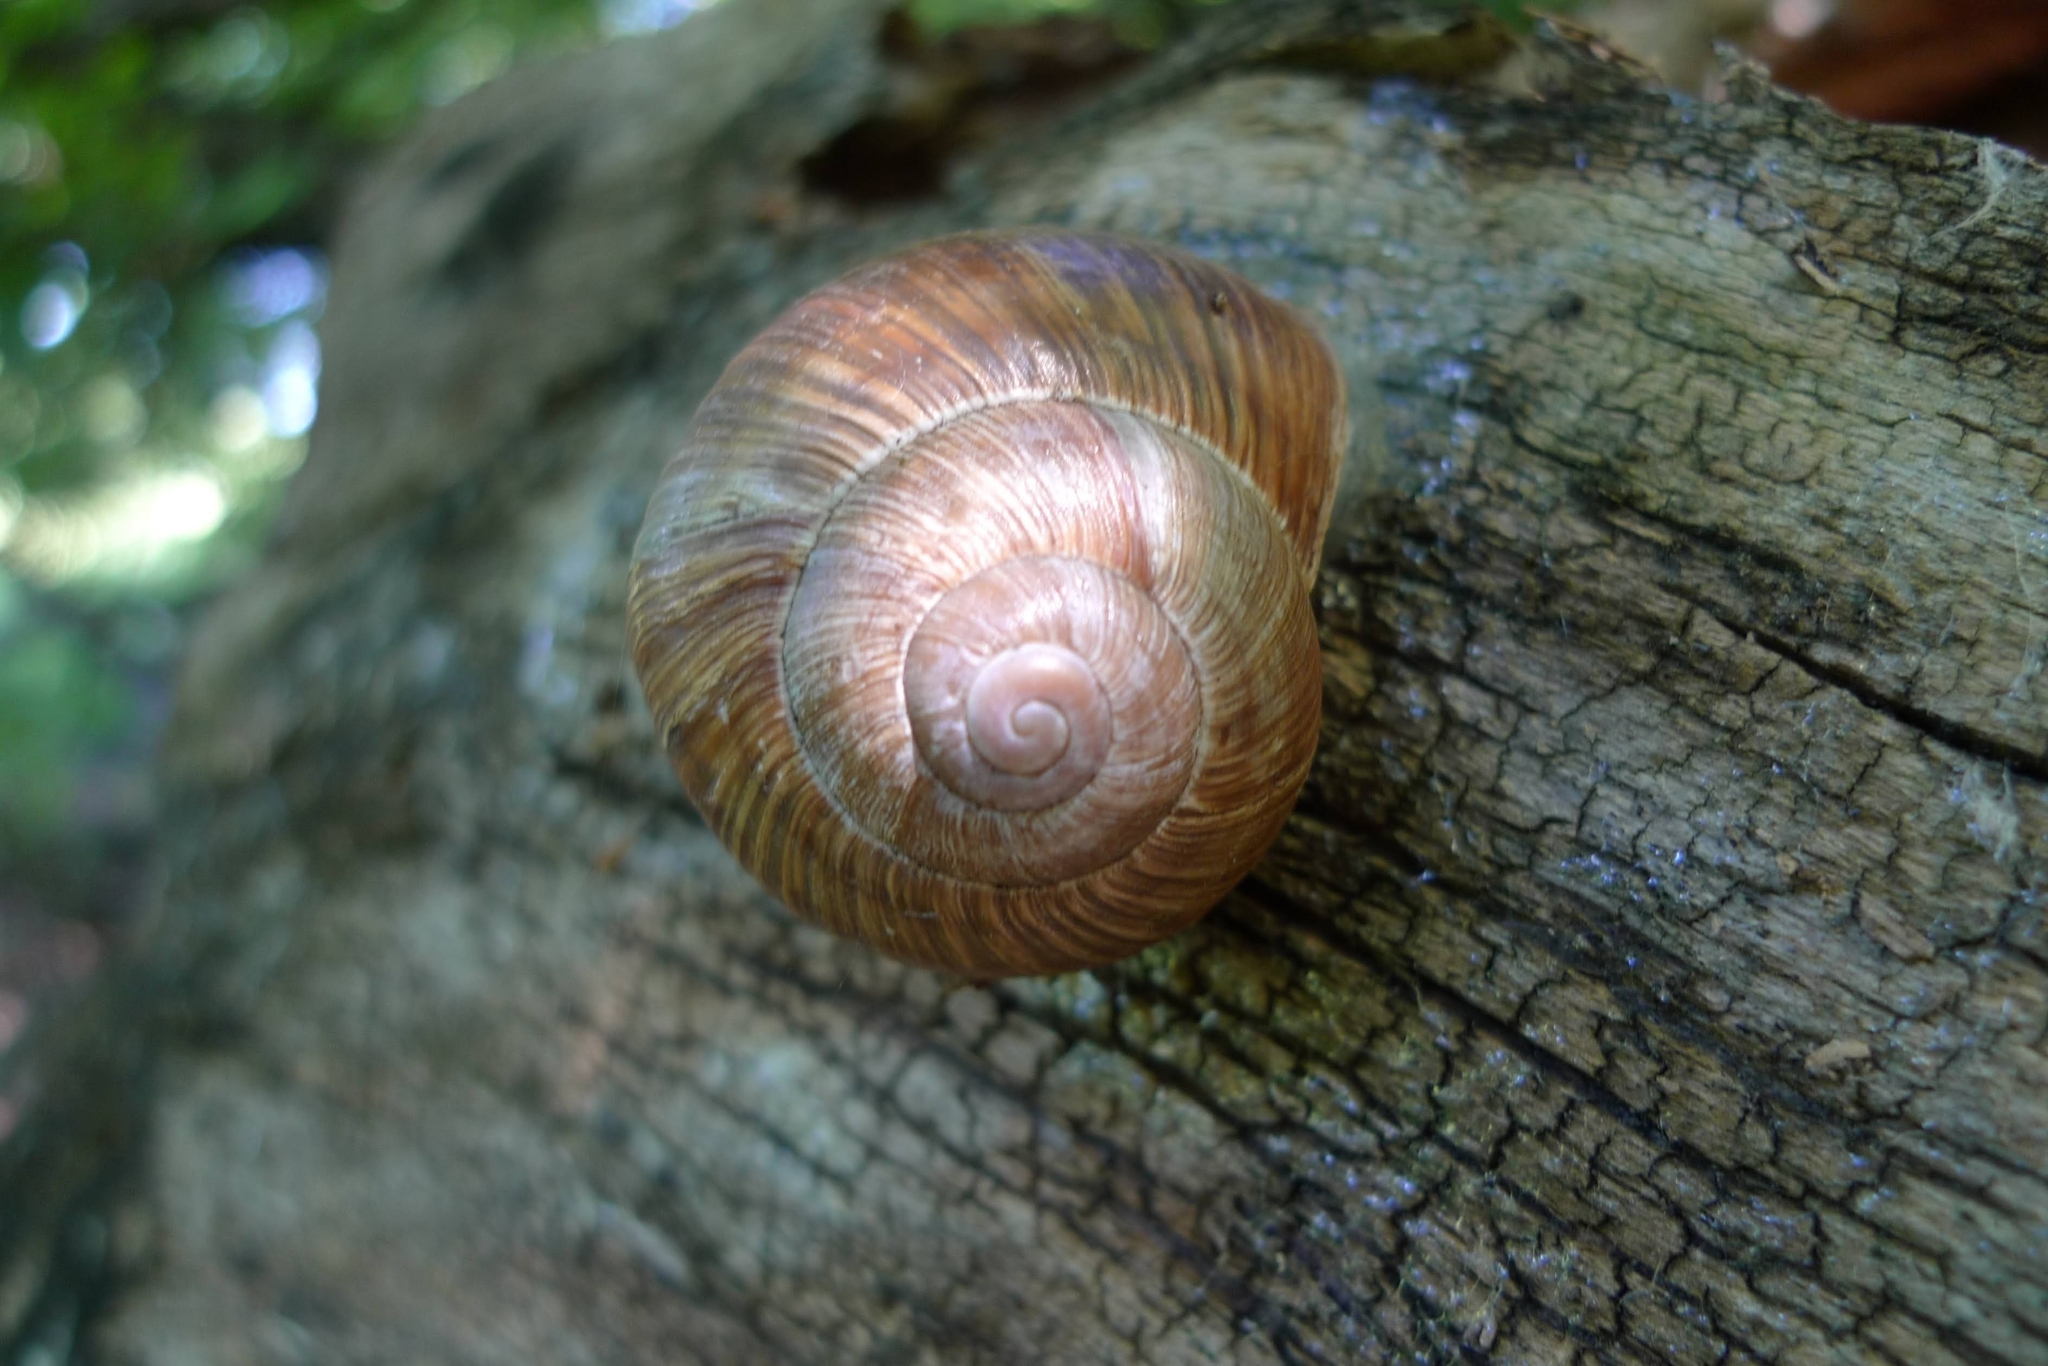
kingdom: Animalia
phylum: Mollusca
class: Gastropoda
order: Stylommatophora
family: Helicidae
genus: Helix
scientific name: Helix pomatia
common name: Roman snail
